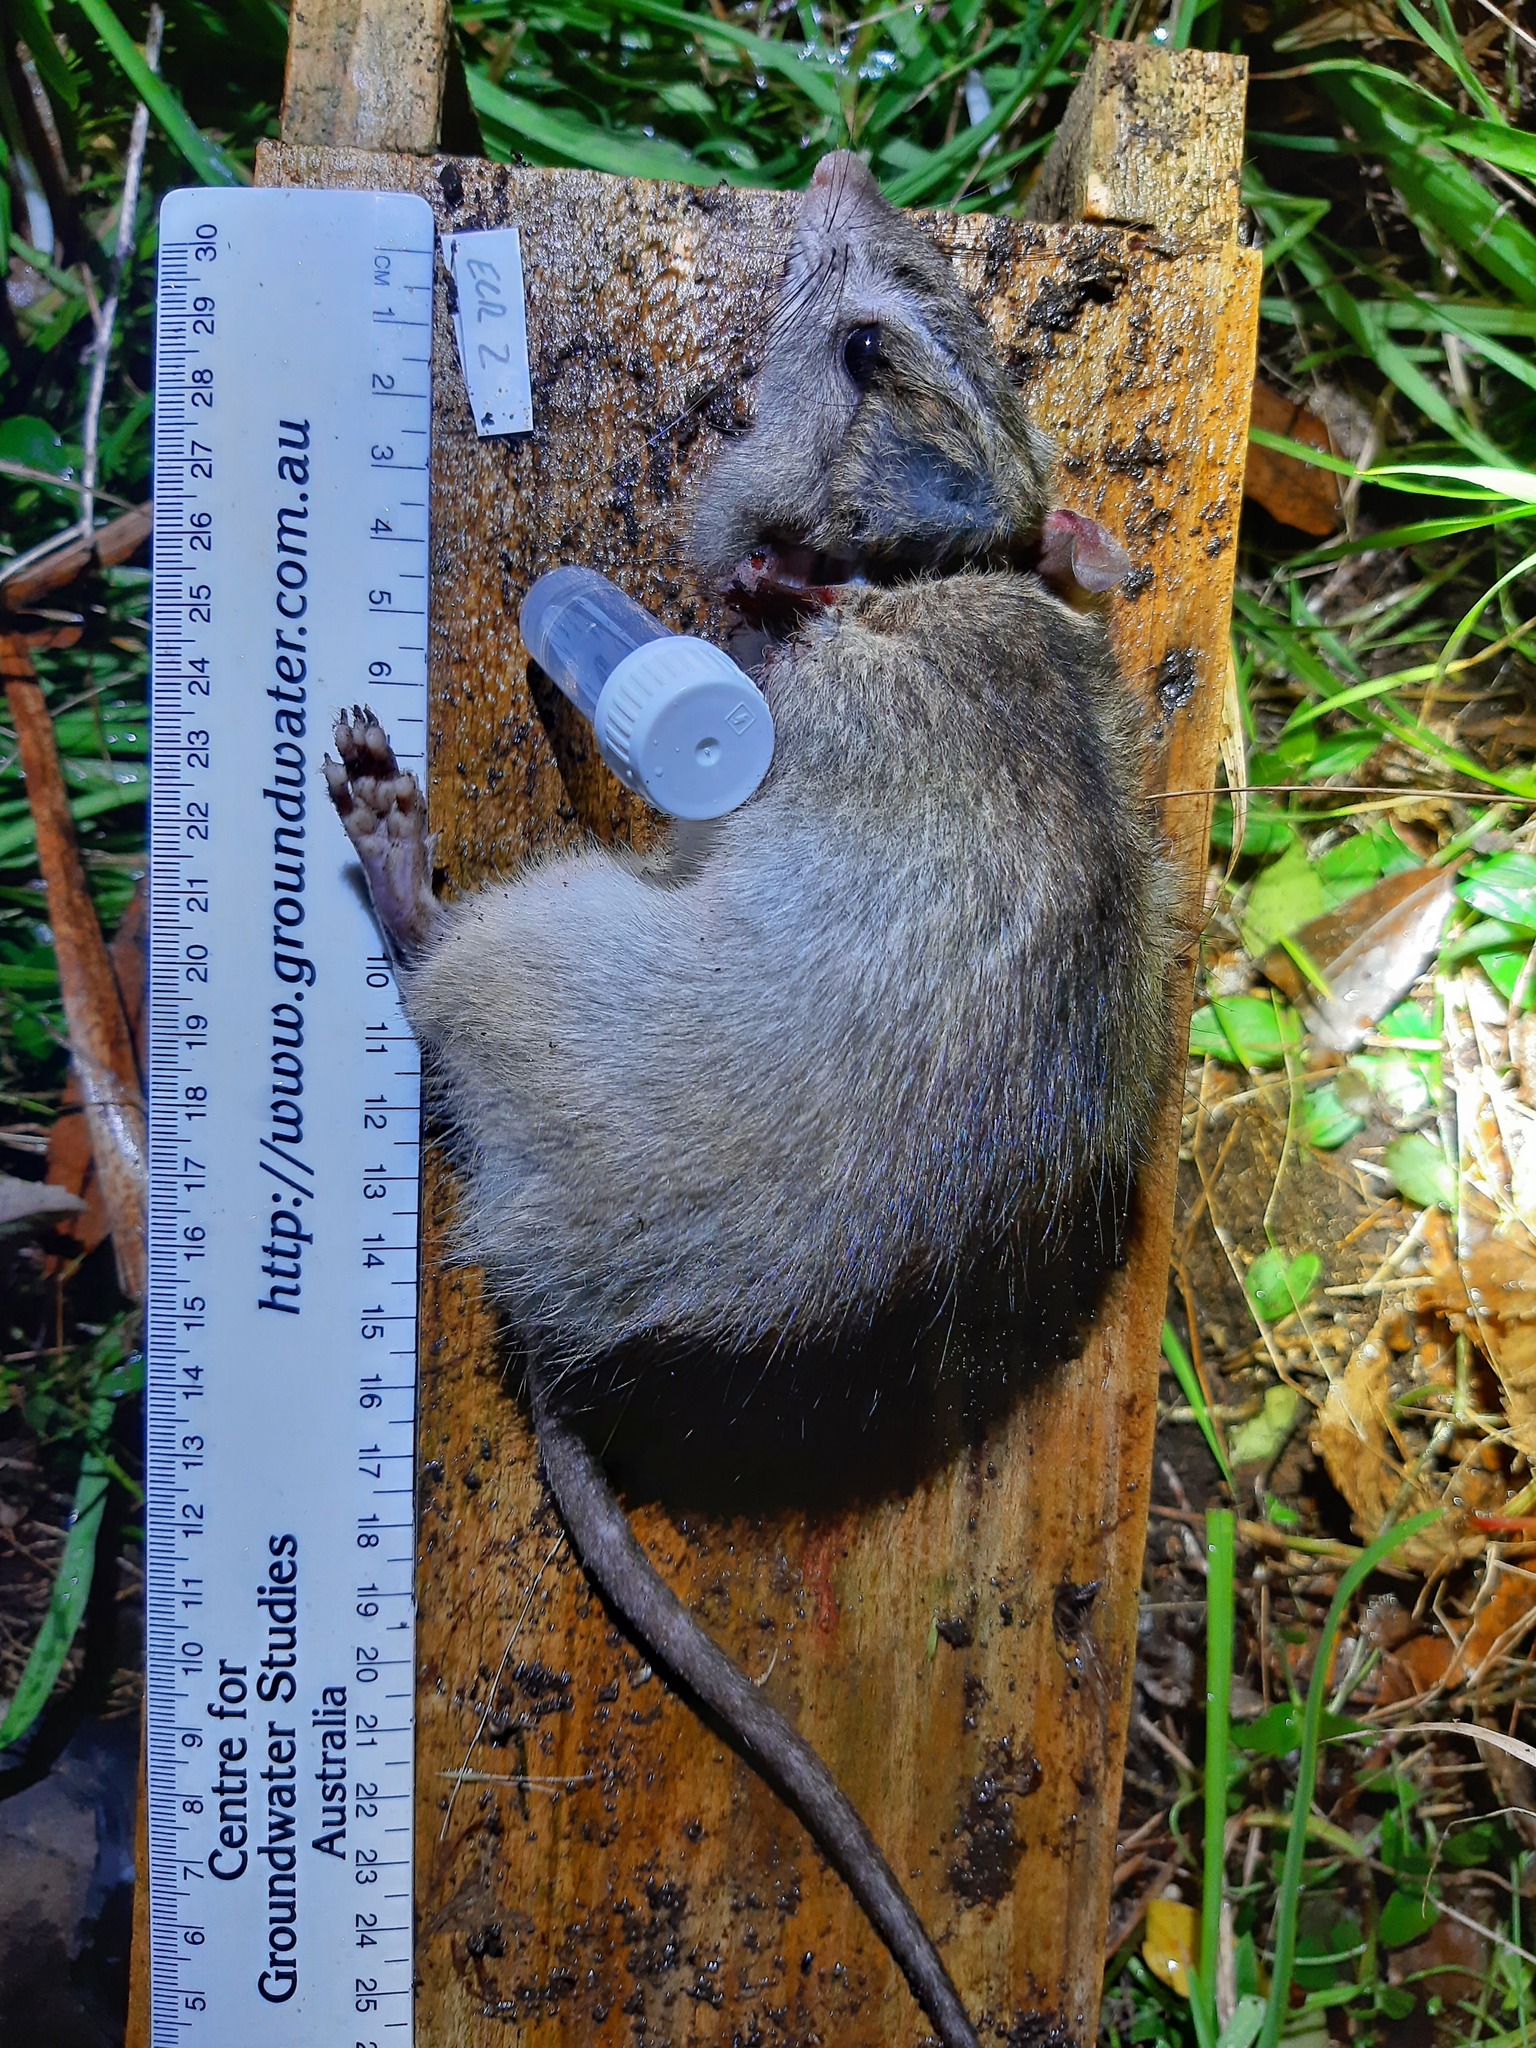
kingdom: Animalia
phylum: Chordata
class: Mammalia
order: Rodentia
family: Muridae
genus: Rattus
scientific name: Rattus rattus
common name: Black rat
